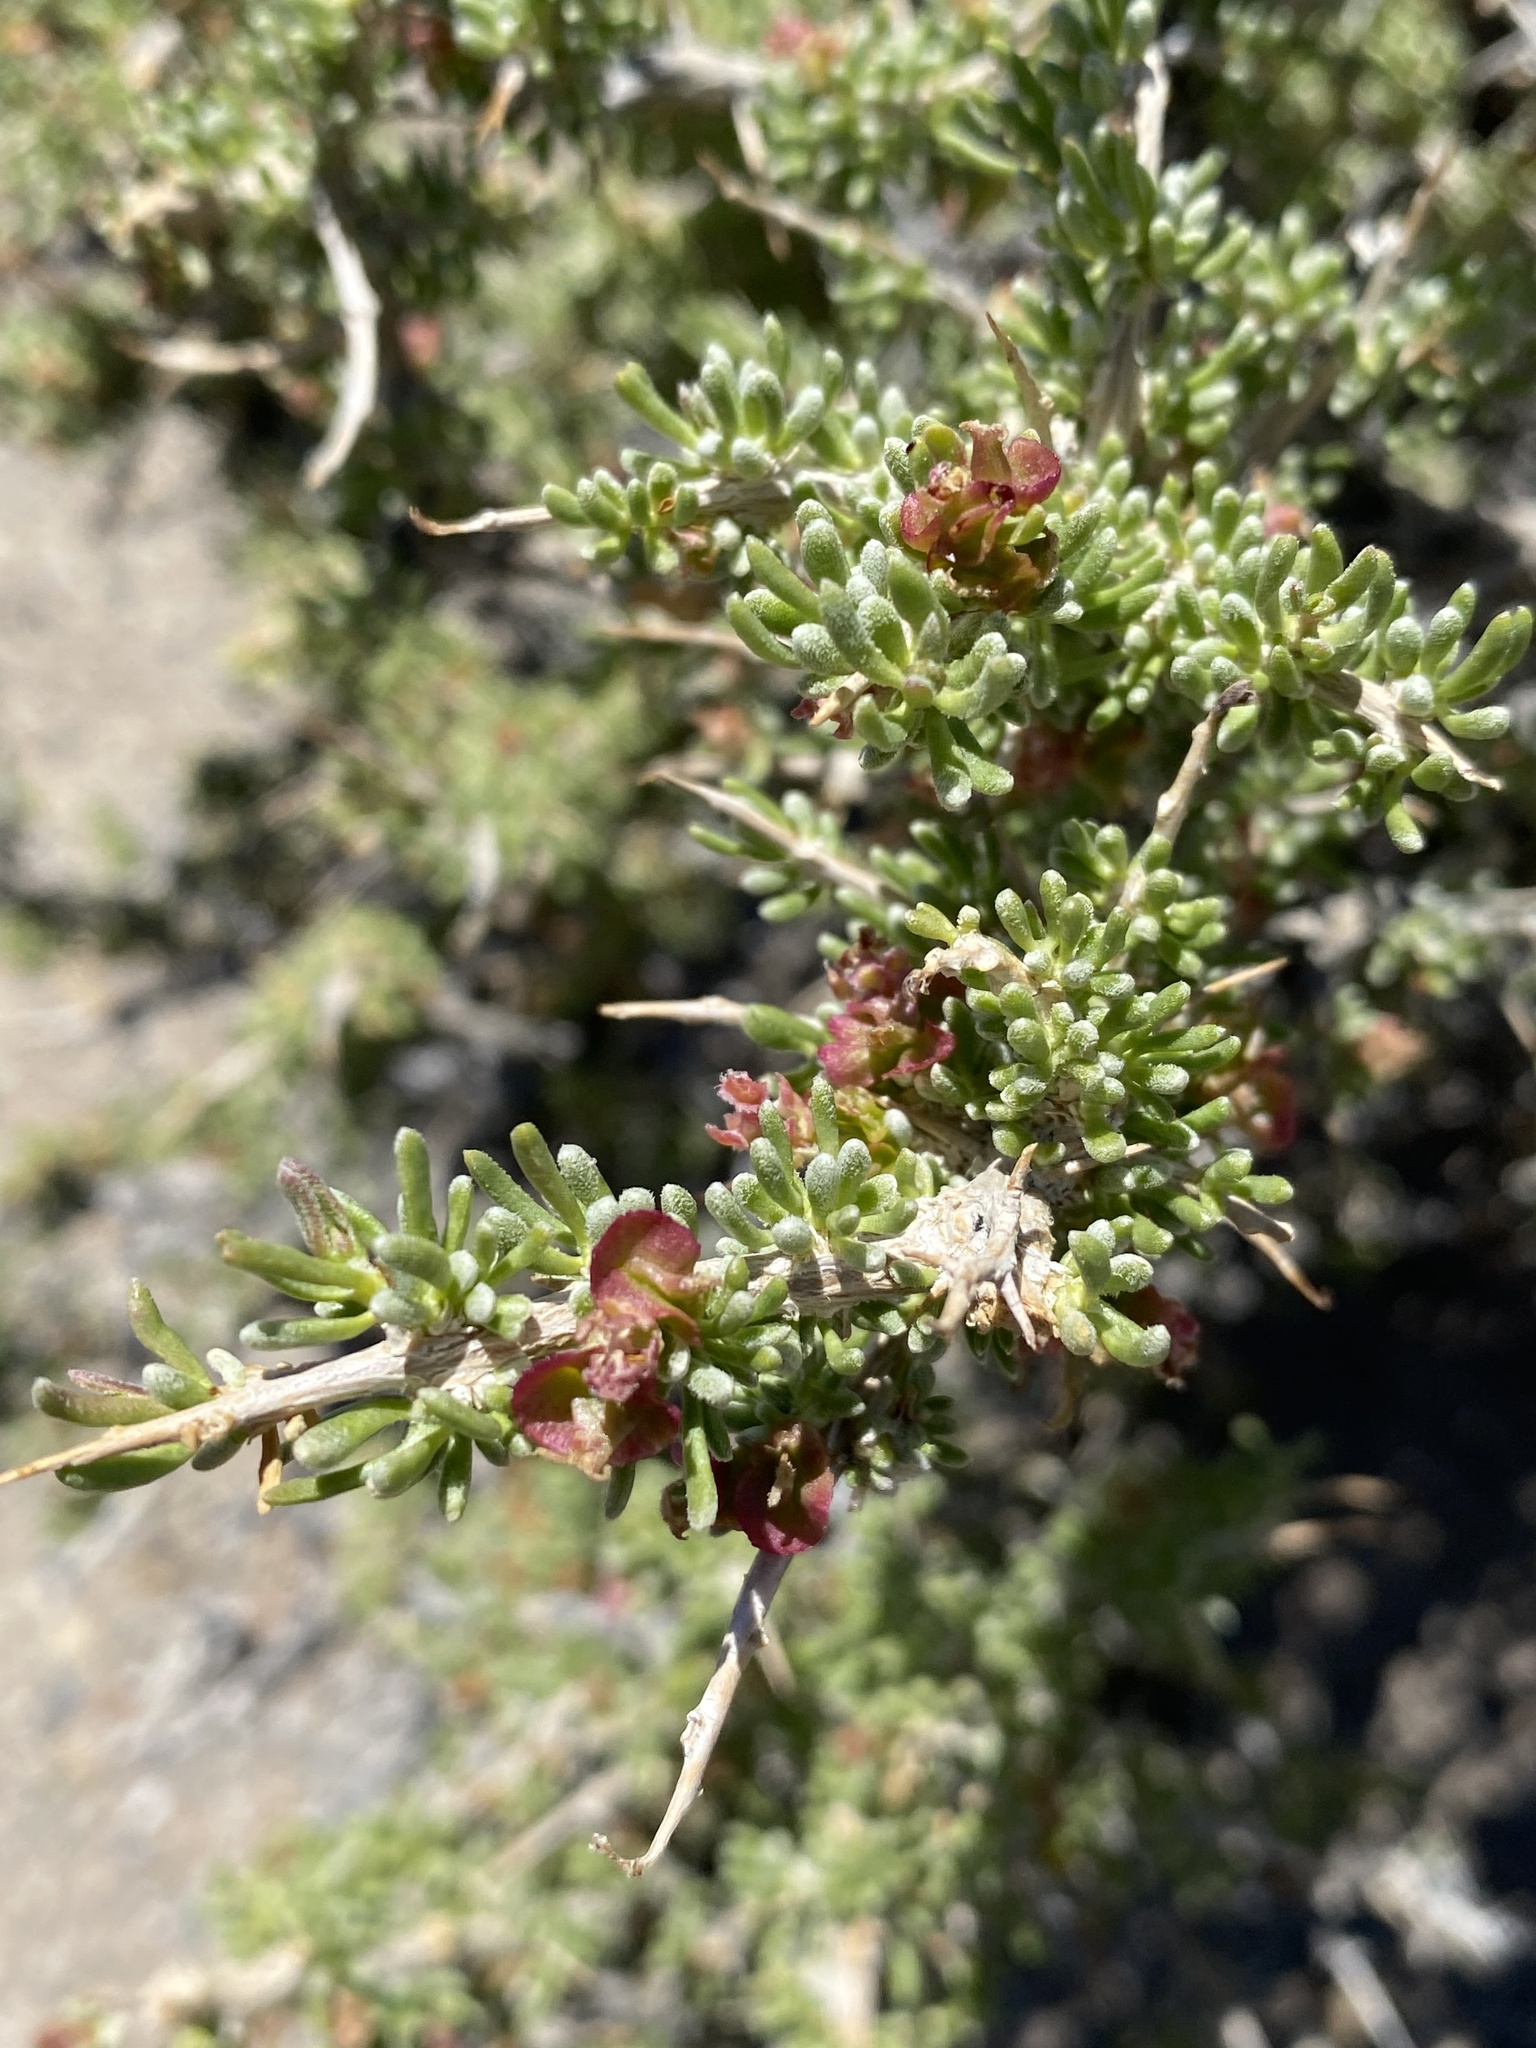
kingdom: Plantae
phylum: Tracheophyta
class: Magnoliopsida
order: Caryophyllales
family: Sarcobataceae
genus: Sarcobatus
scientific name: Sarcobatus baileyi
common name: Bailey greasewood
